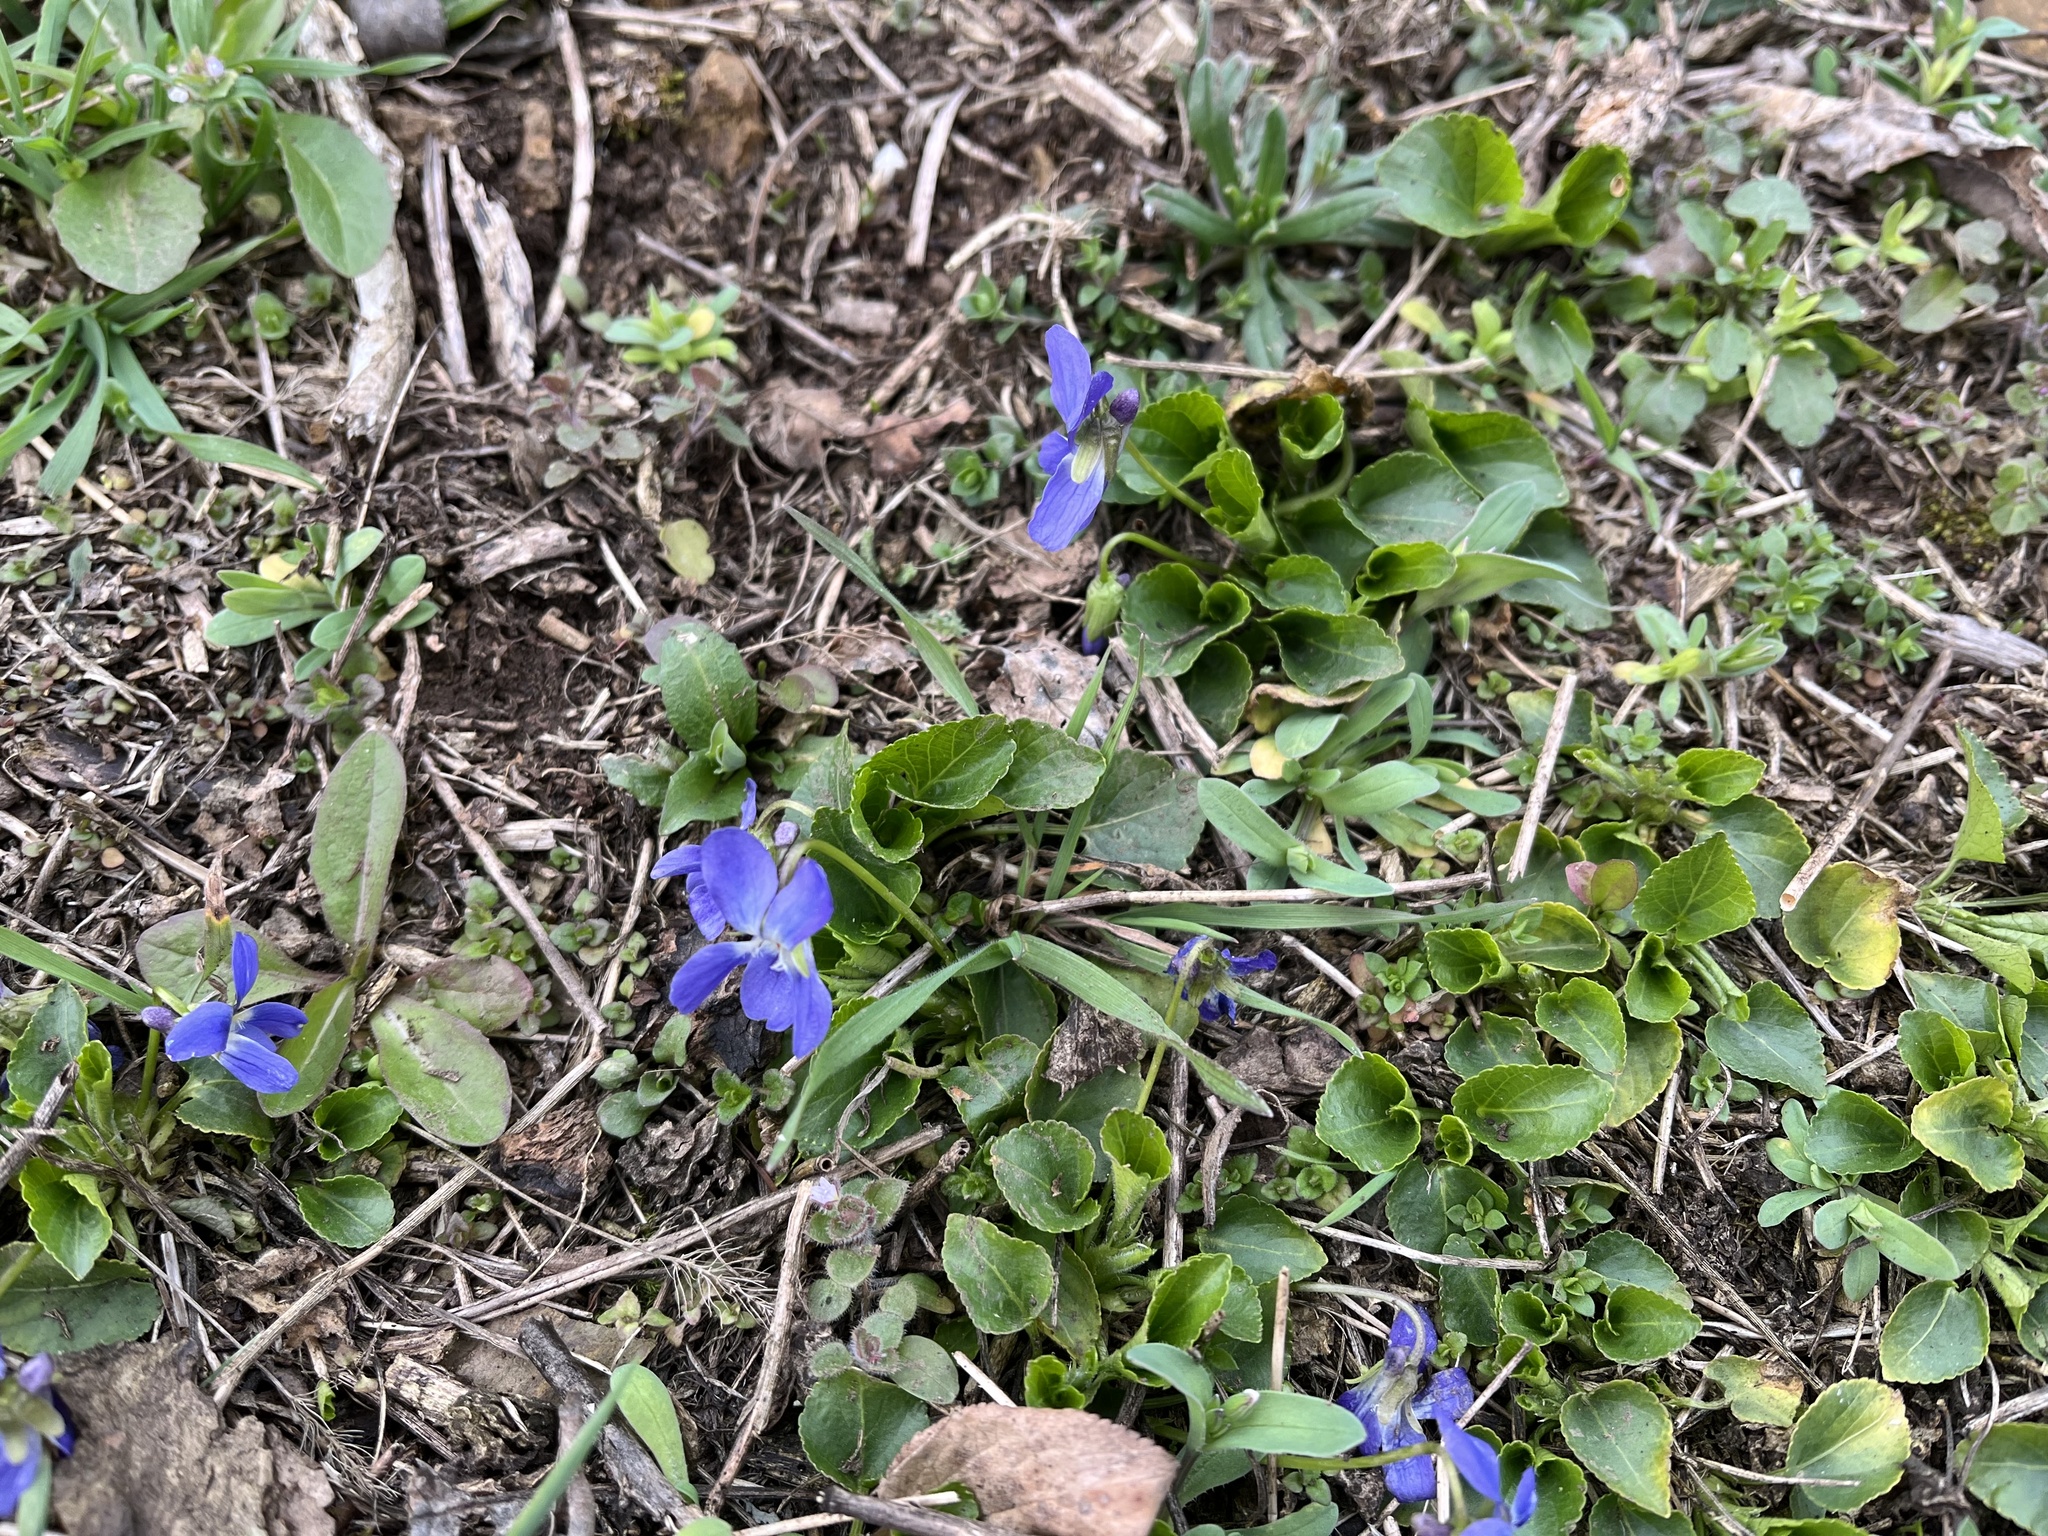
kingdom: Plantae
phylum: Tracheophyta
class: Magnoliopsida
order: Malpighiales
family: Violaceae
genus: Viola
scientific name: Viola suavis
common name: Russian violet
